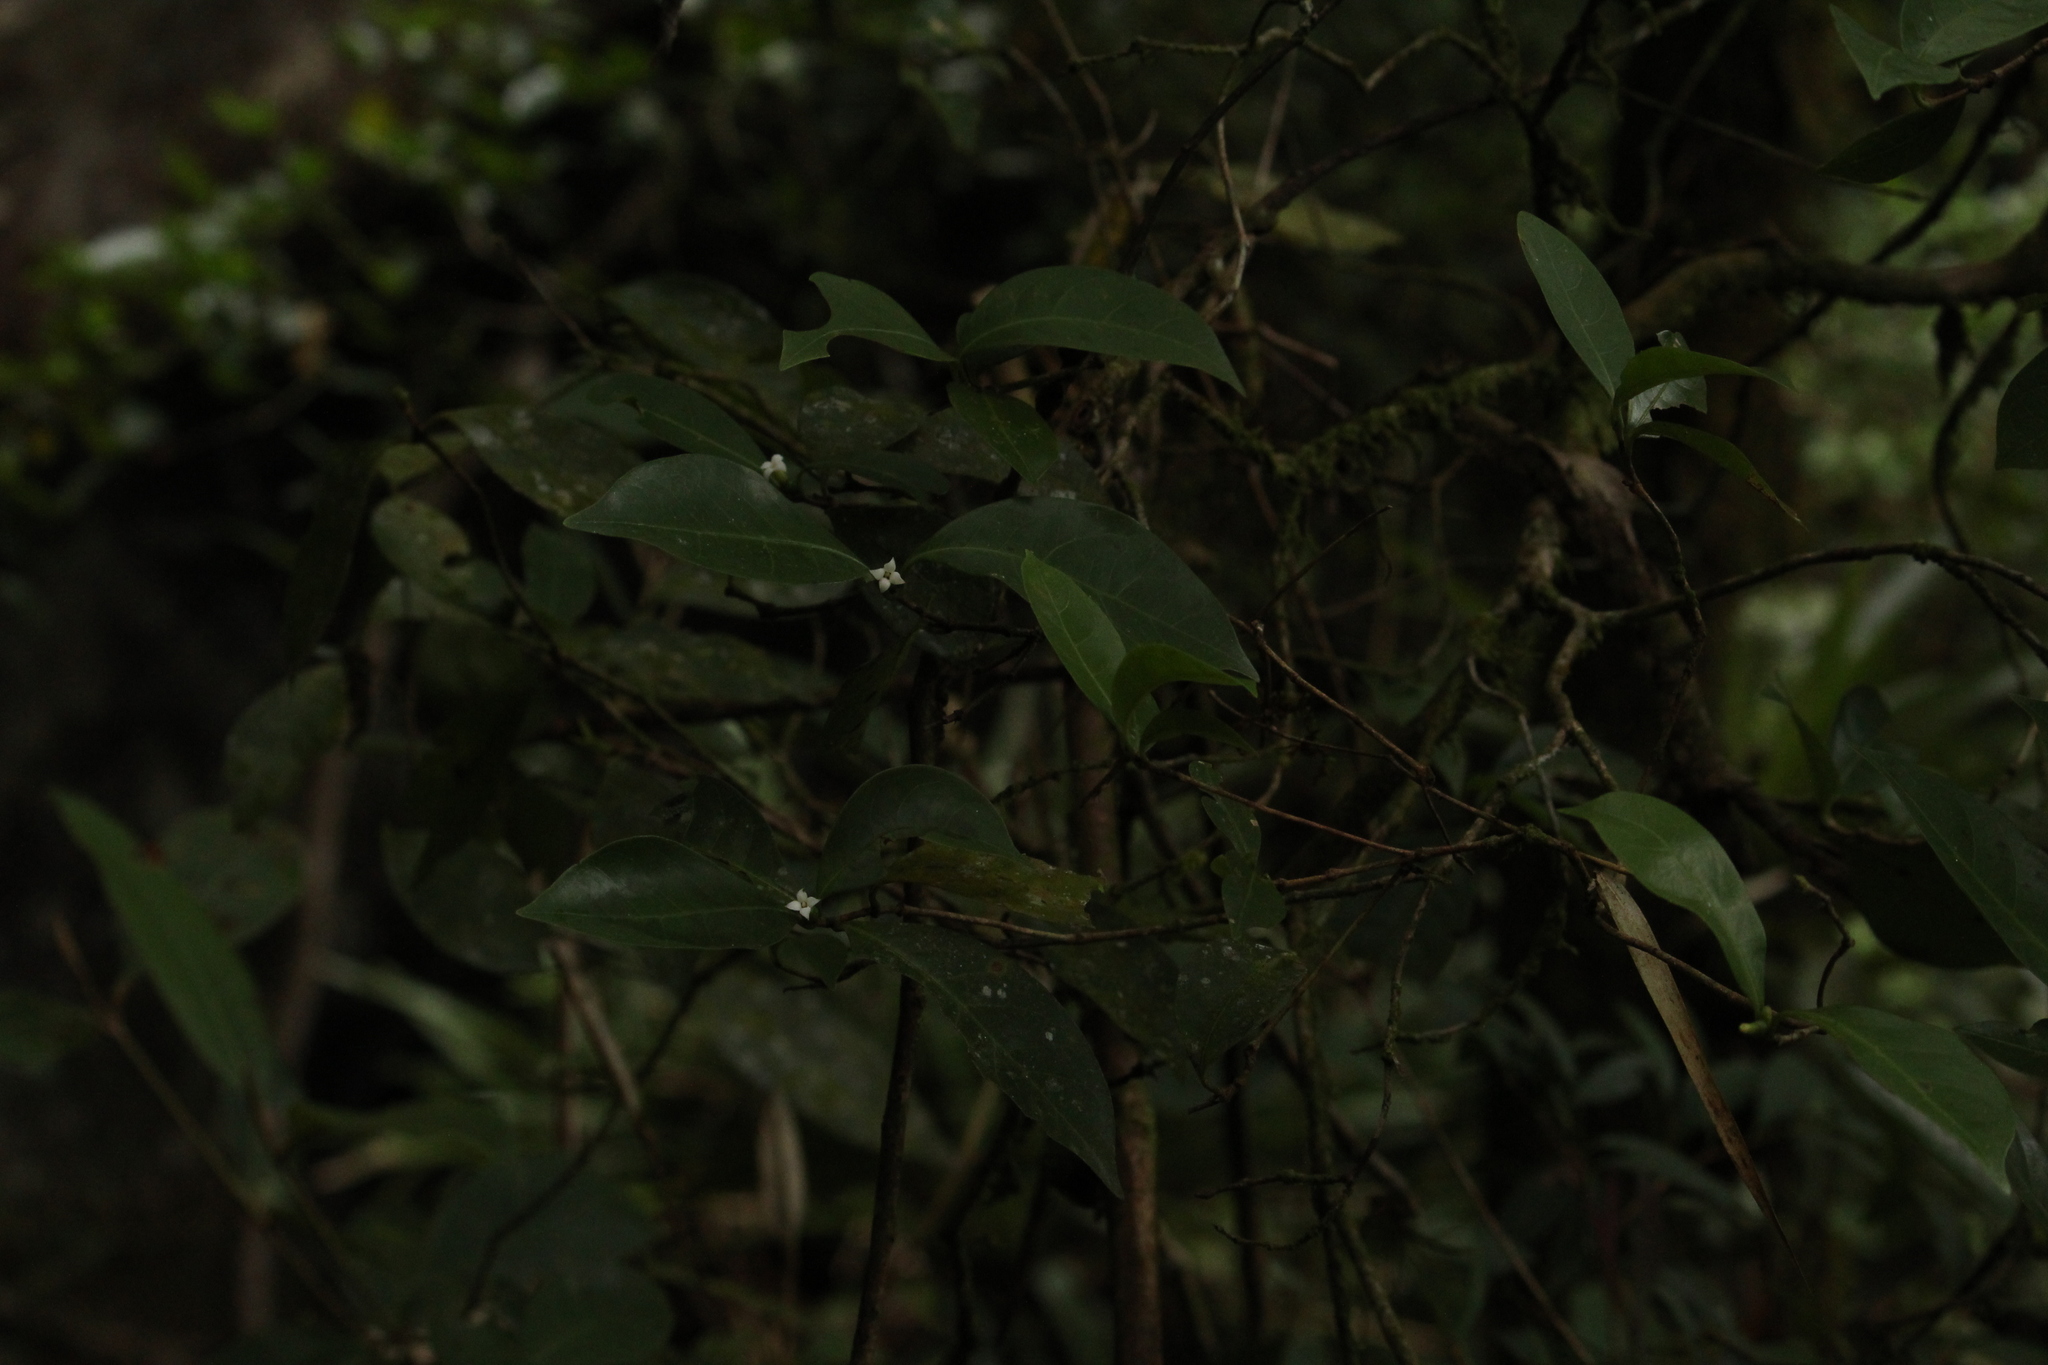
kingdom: Plantae
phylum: Tracheophyta
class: Magnoliopsida
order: Gentianales
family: Rubiaceae
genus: Cordiera
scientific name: Cordiera concolor
